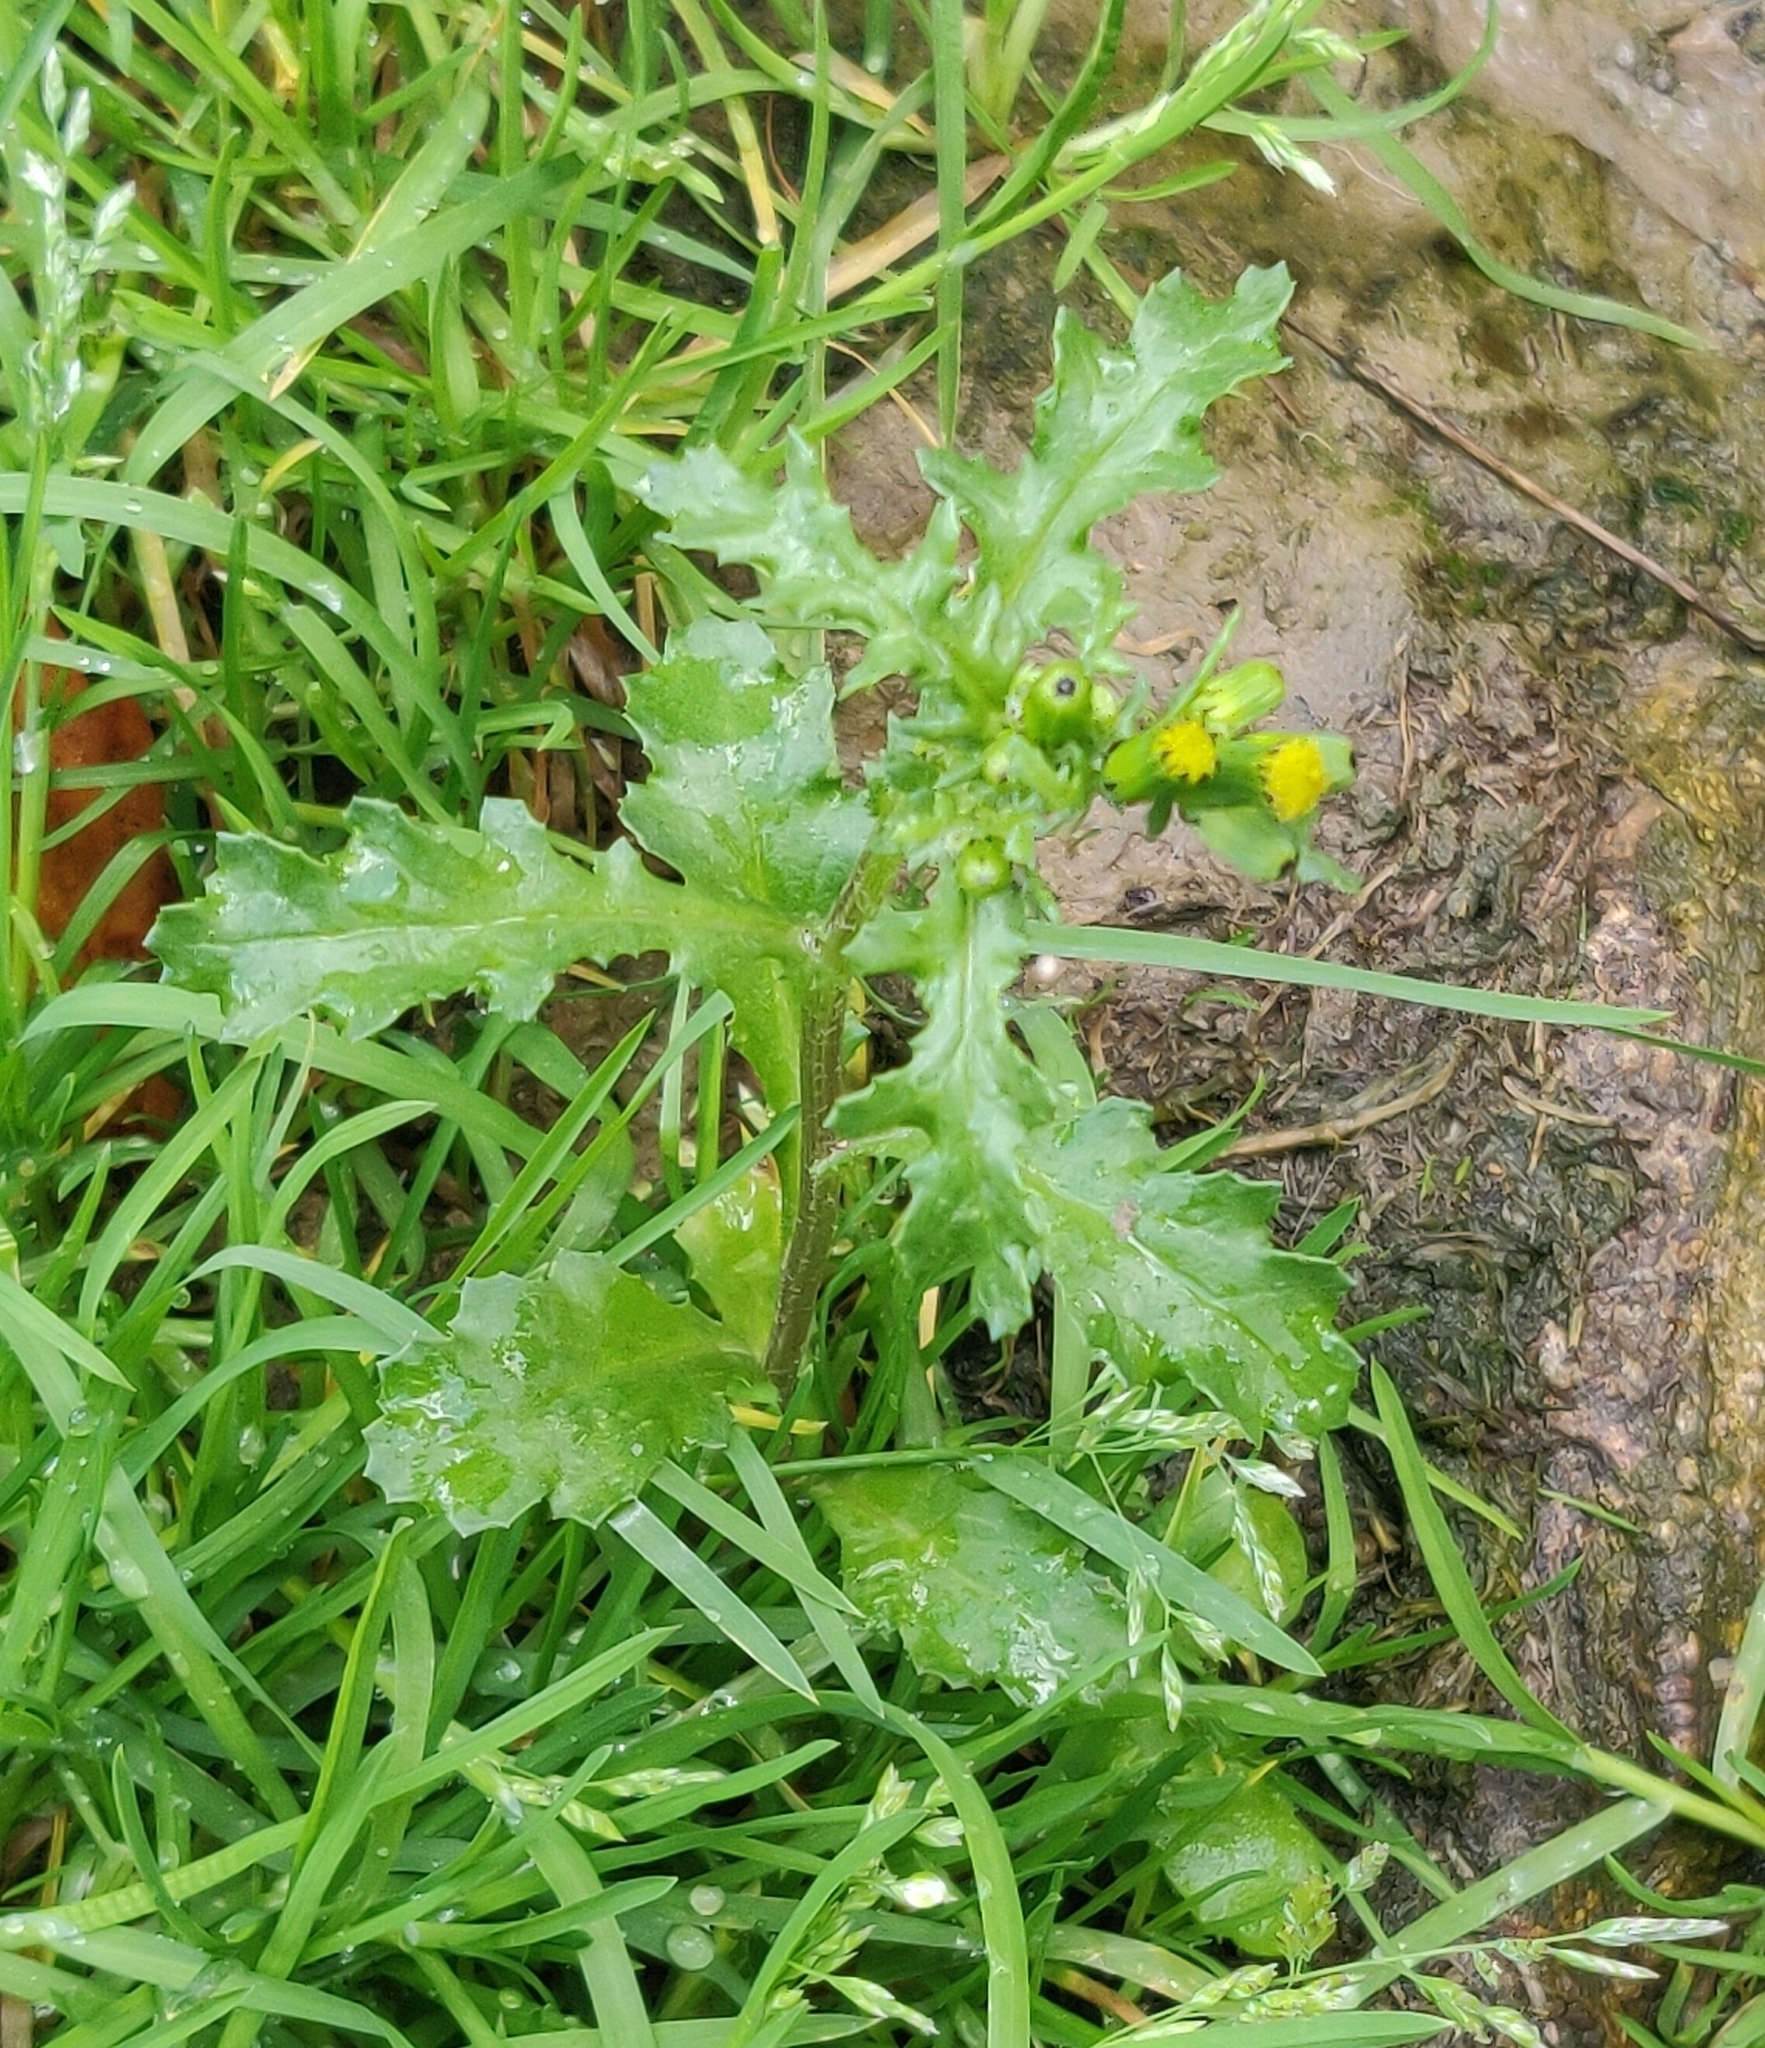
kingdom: Plantae
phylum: Tracheophyta
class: Magnoliopsida
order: Asterales
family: Asteraceae
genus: Senecio
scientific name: Senecio vulgaris
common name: Old-man-in-the-spring
